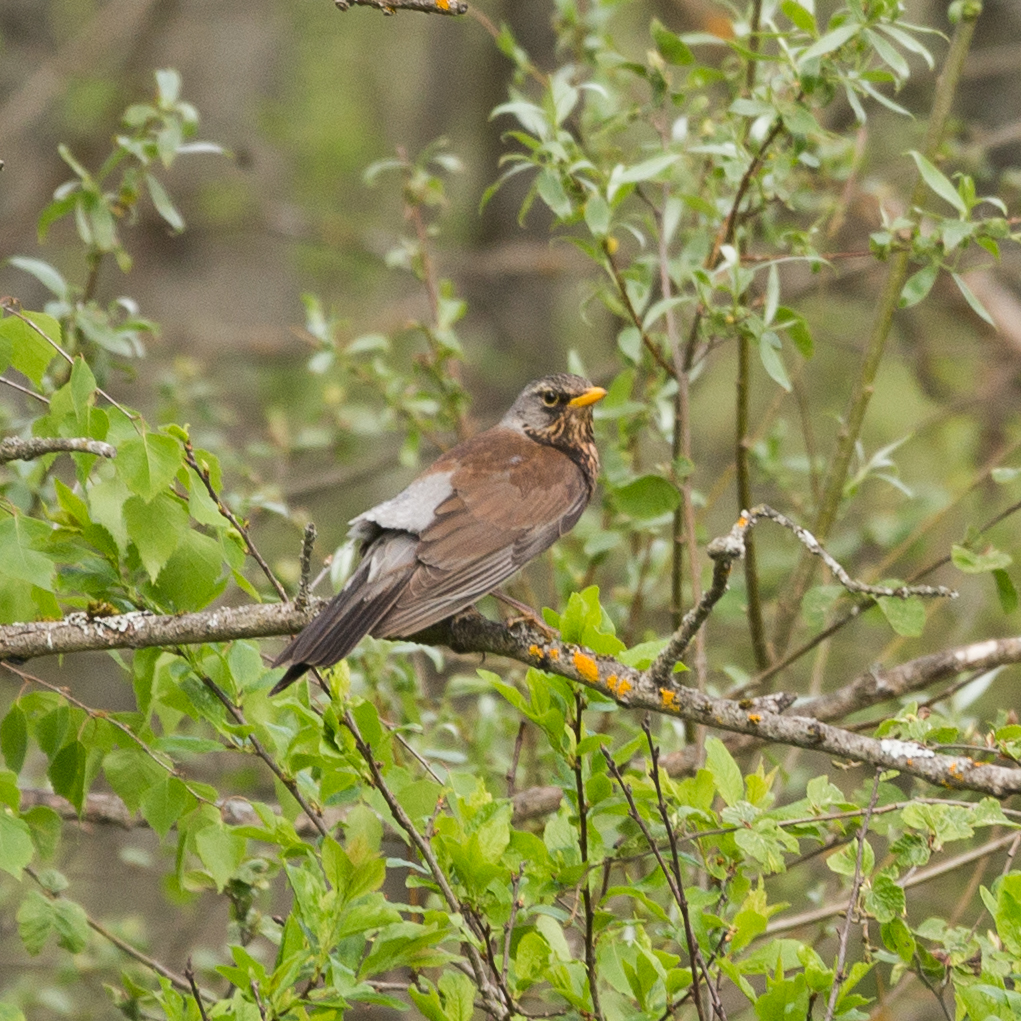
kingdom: Animalia
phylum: Chordata
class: Aves
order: Passeriformes
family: Turdidae
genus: Turdus
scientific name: Turdus pilaris
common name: Fieldfare
